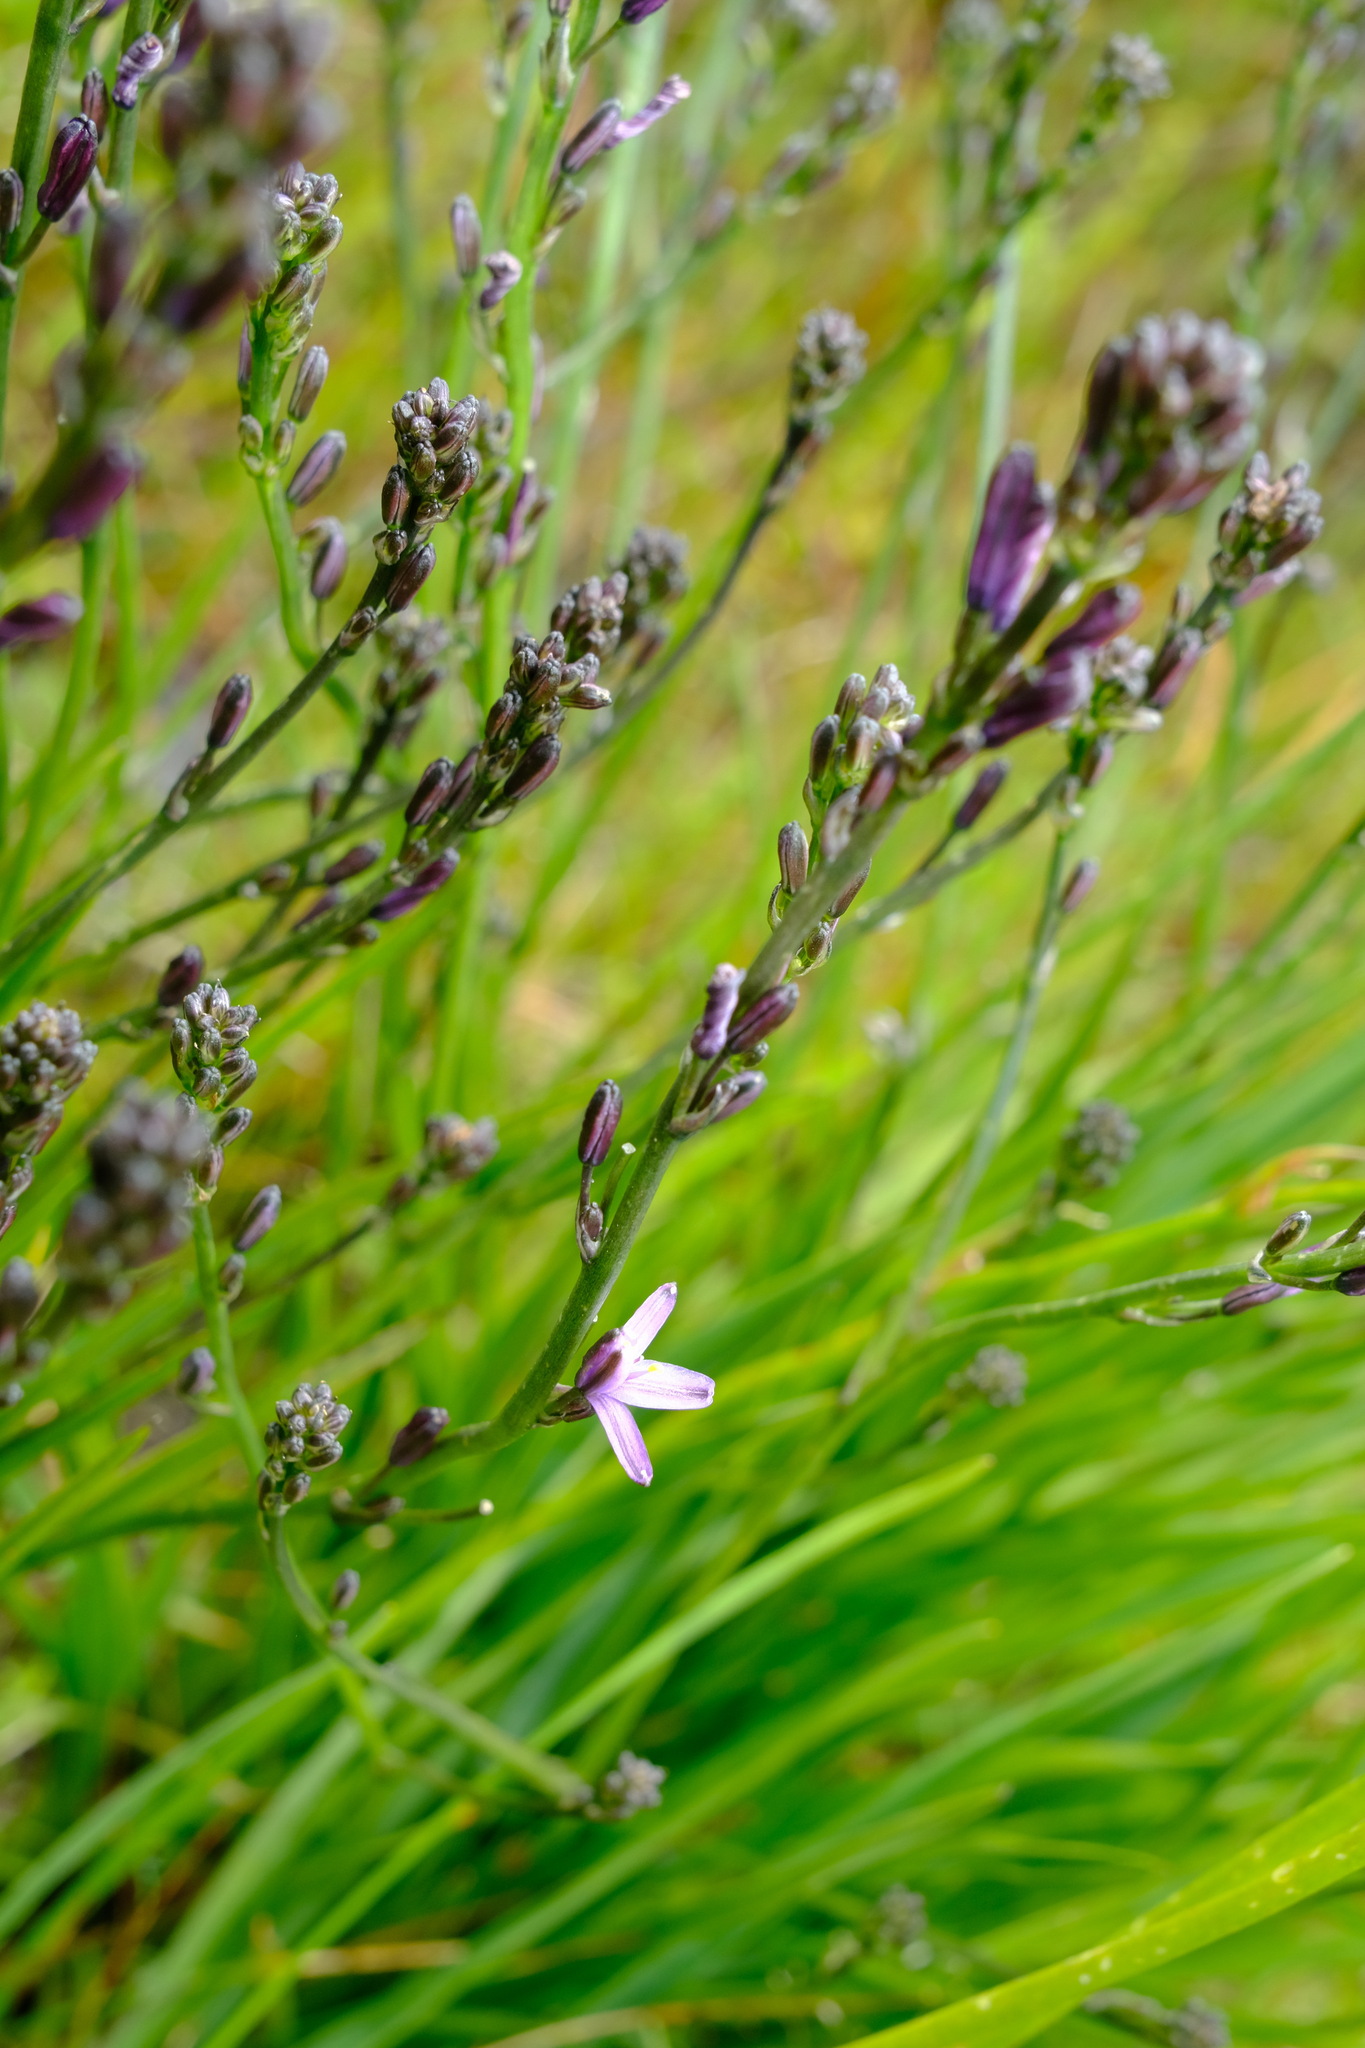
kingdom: Plantae
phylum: Tracheophyta
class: Liliopsida
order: Asparagales
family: Asphodelaceae
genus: Caesia
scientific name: Caesia calliantha
